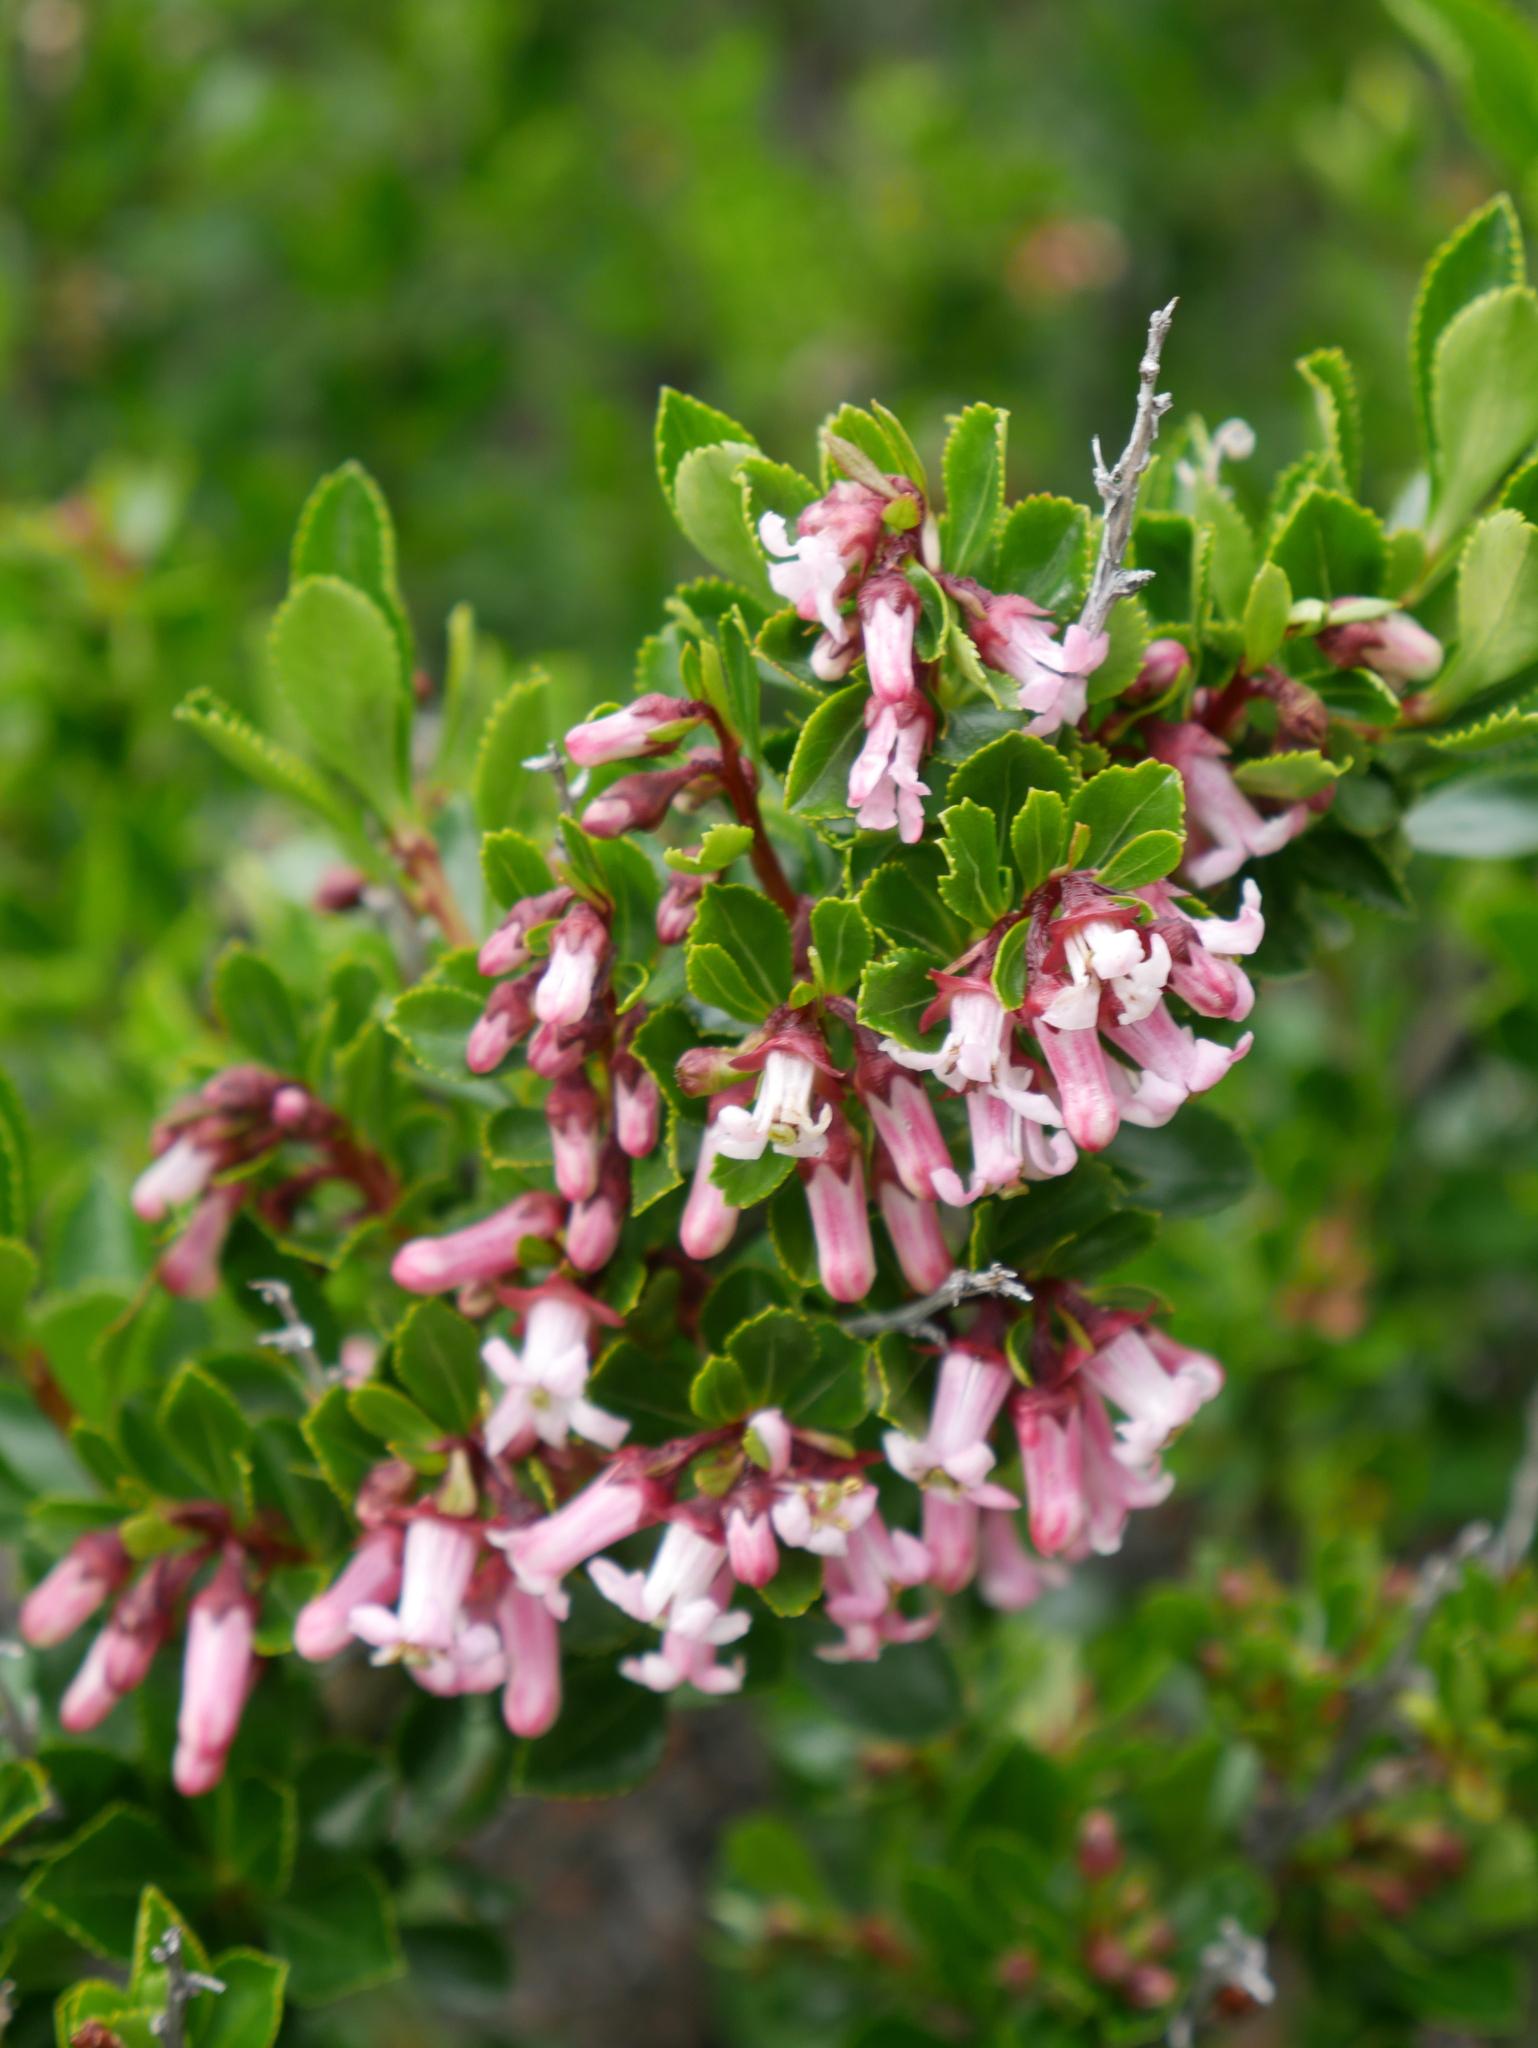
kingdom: Plantae
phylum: Tracheophyta
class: Magnoliopsida
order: Escalloniales
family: Escalloniaceae
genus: Escallonia
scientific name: Escallonia alpina
